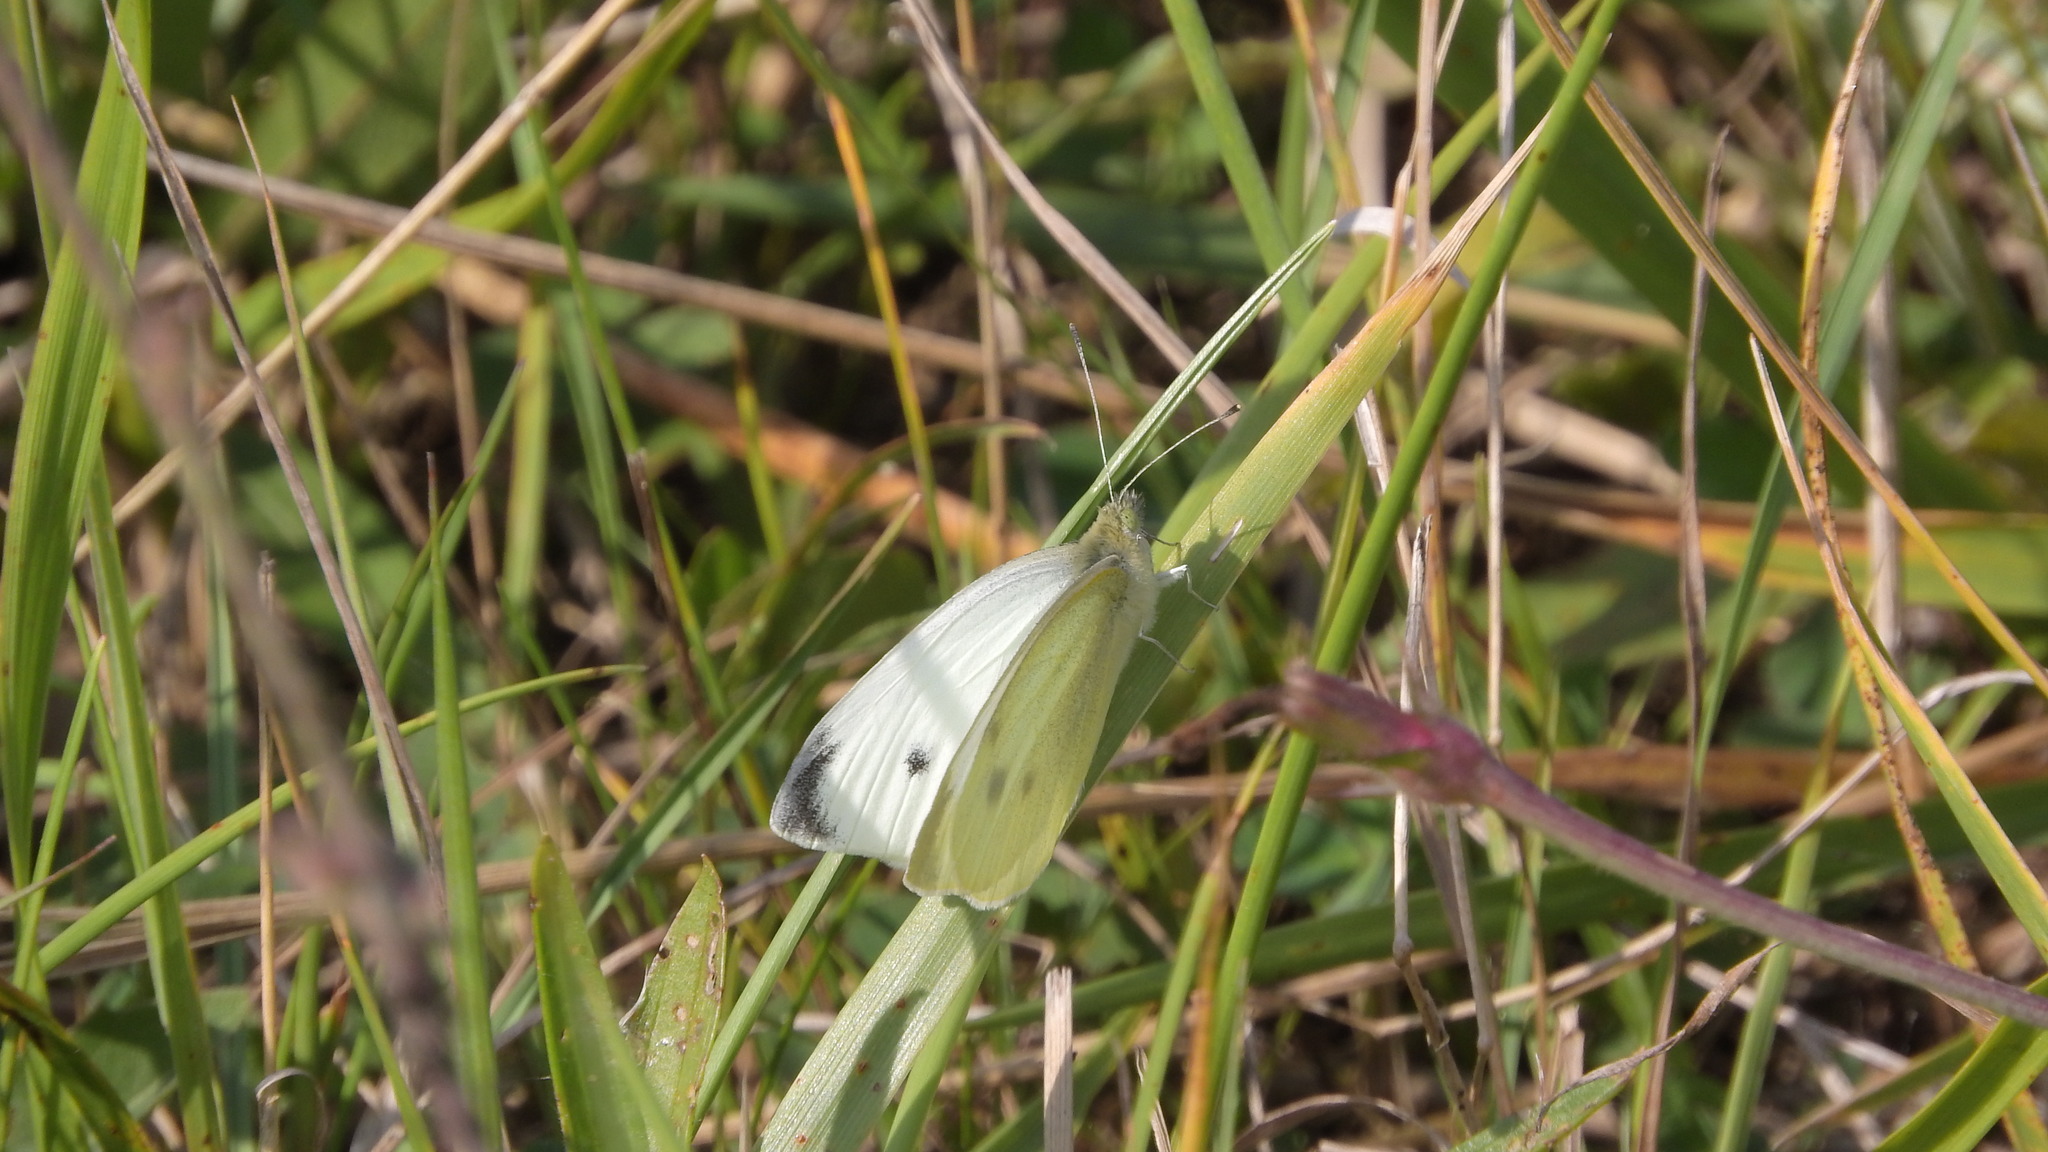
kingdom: Animalia
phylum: Arthropoda
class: Insecta
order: Lepidoptera
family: Pieridae
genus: Pieris
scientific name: Pieris rapae
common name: Small white
